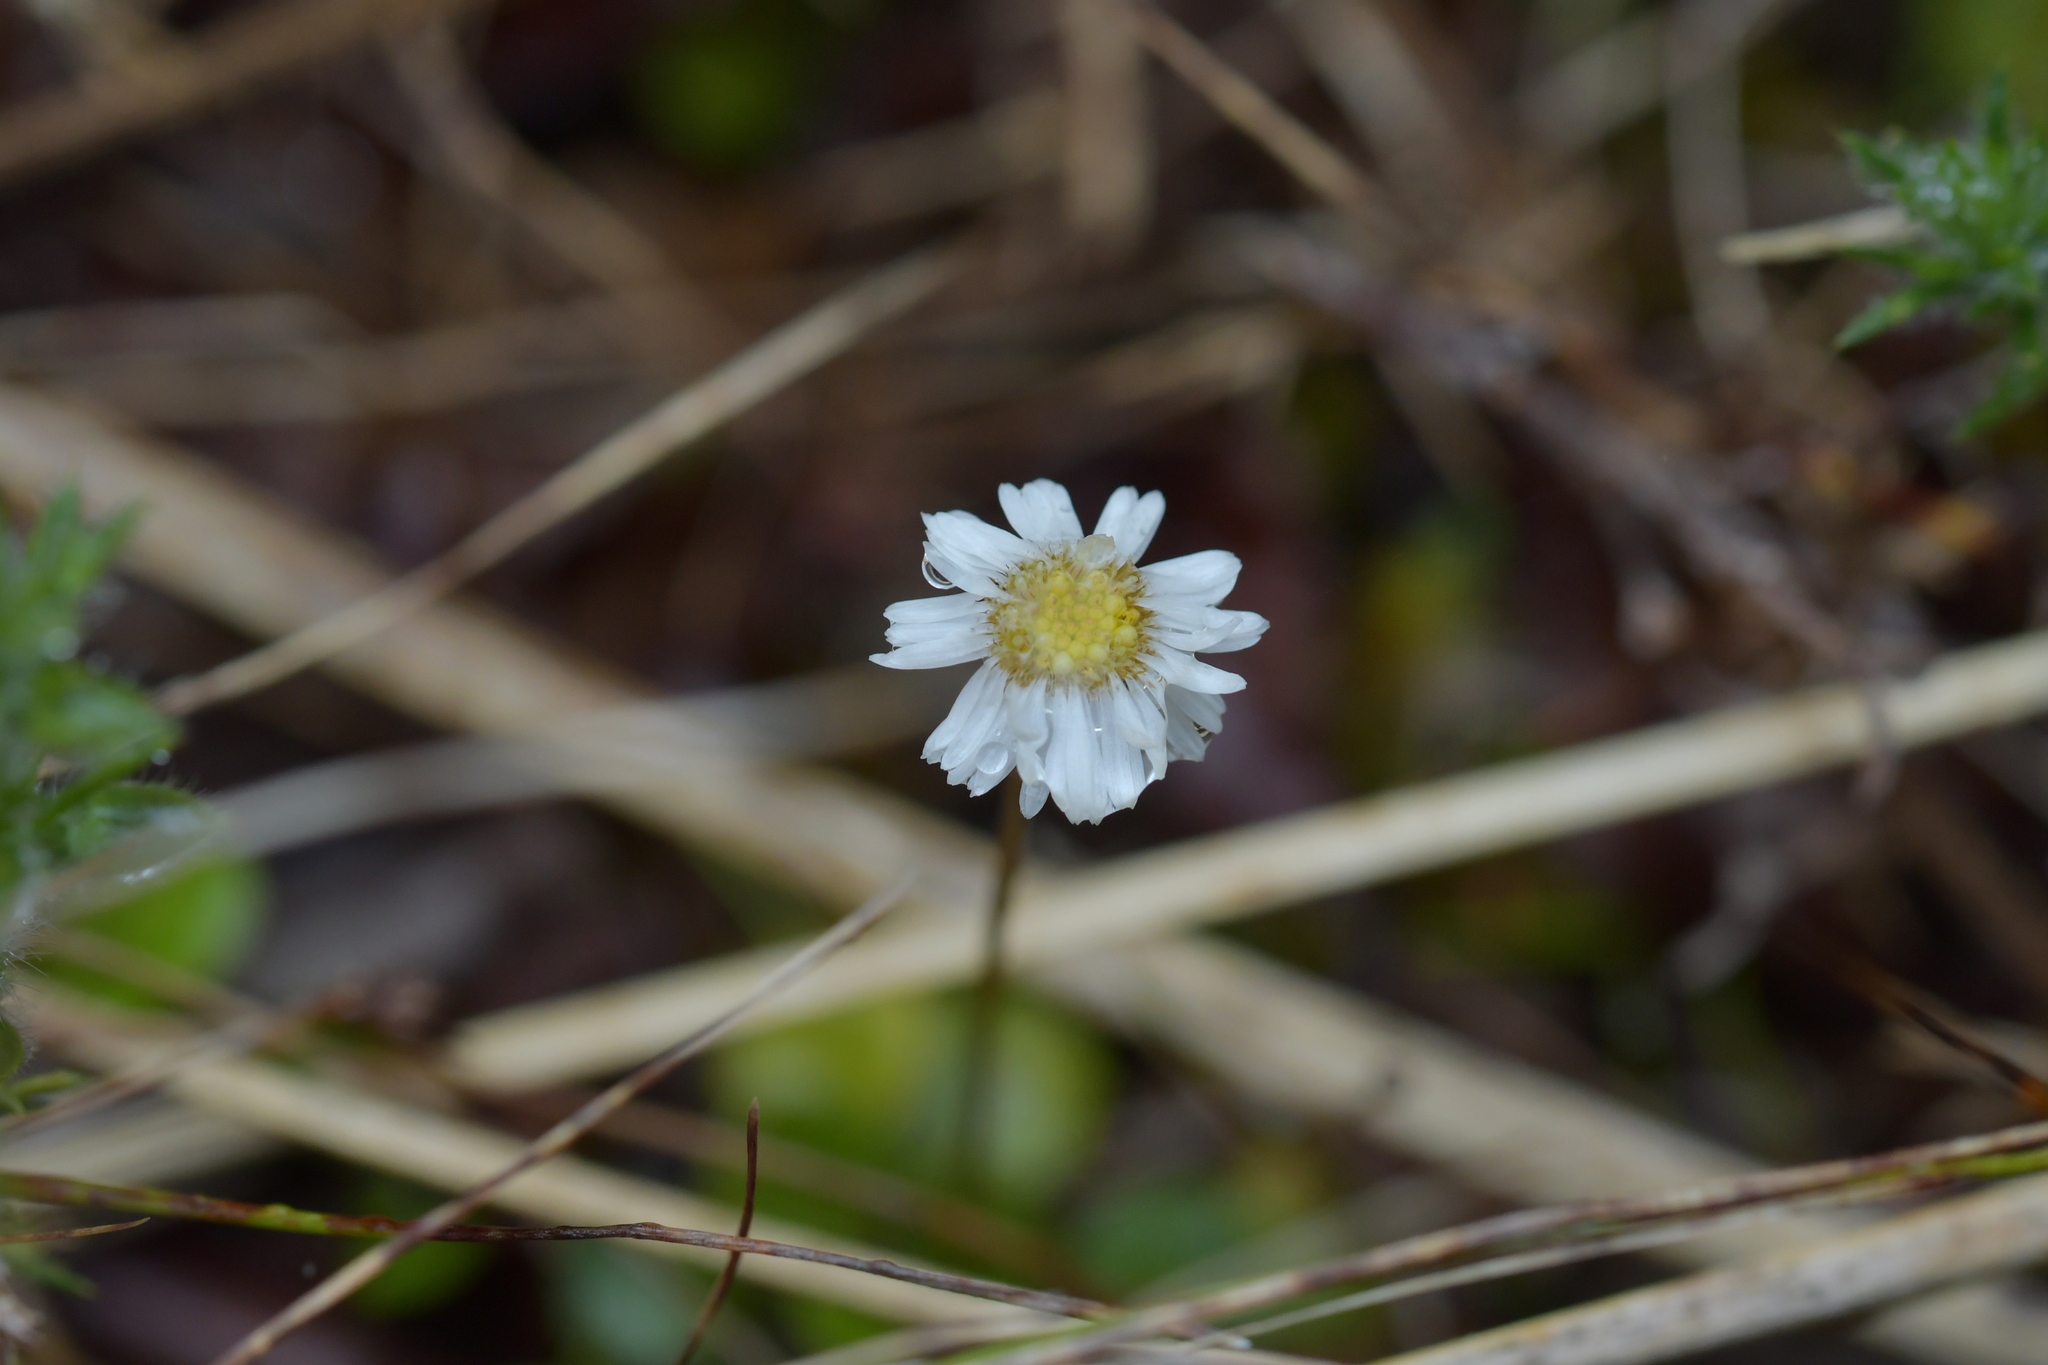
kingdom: Plantae
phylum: Tracheophyta
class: Magnoliopsida
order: Asterales
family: Asteraceae
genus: Lagenophora
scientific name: Lagenophora pumila
